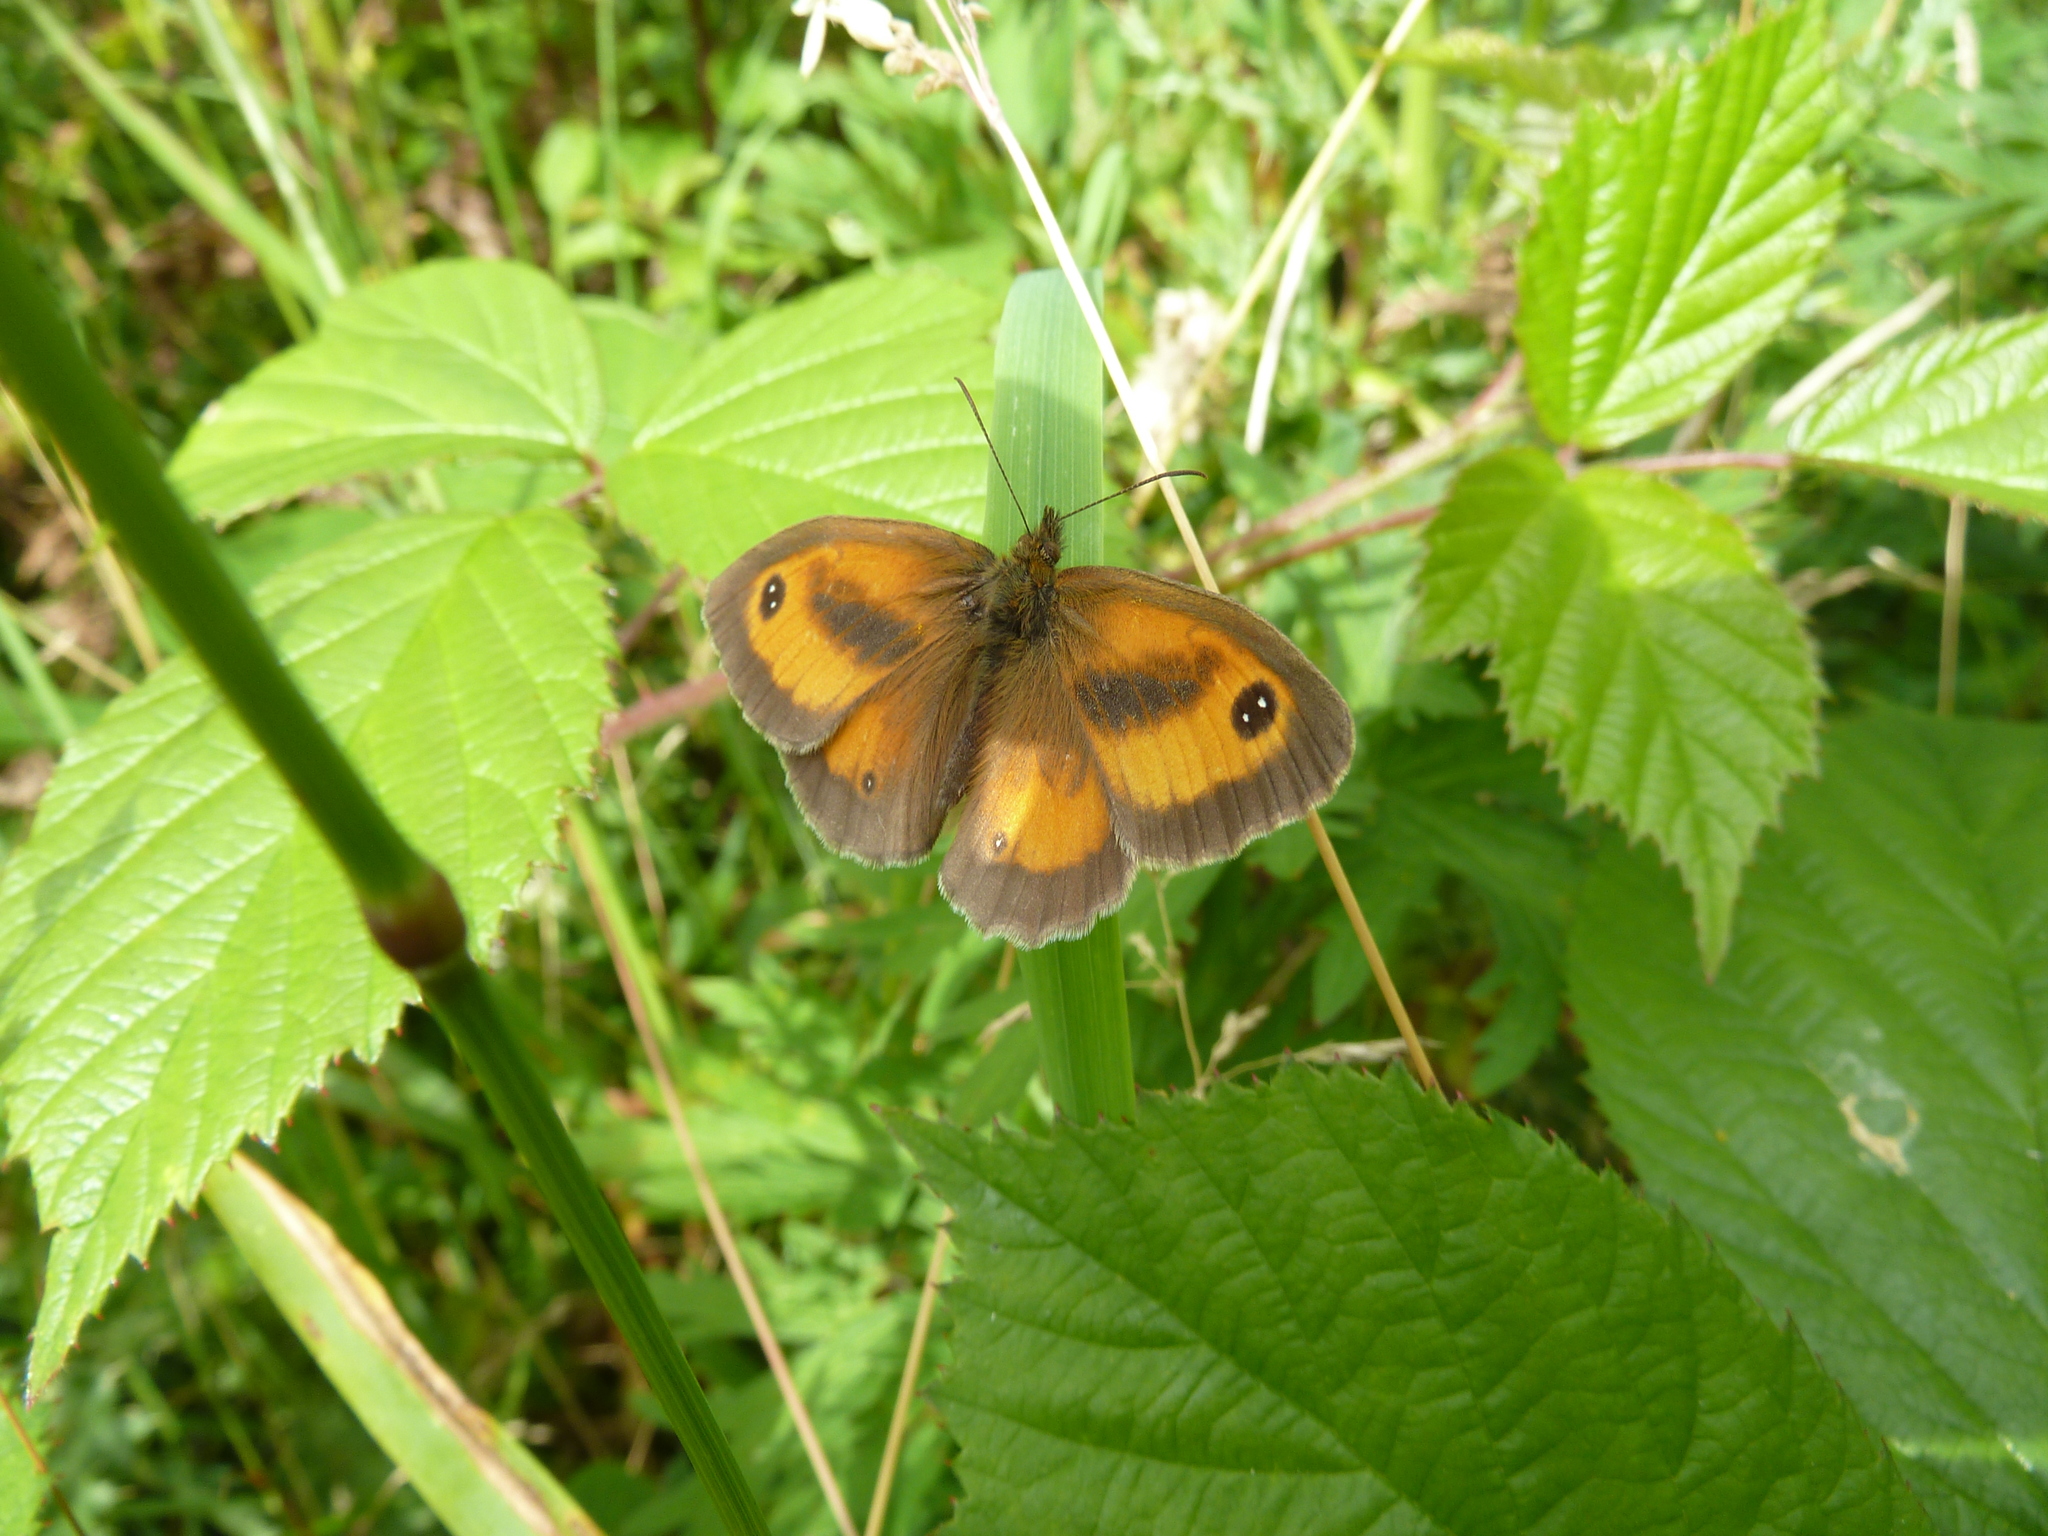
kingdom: Animalia
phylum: Arthropoda
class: Insecta
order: Lepidoptera
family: Nymphalidae
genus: Pyronia
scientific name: Pyronia tithonus
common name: Gatekeeper
